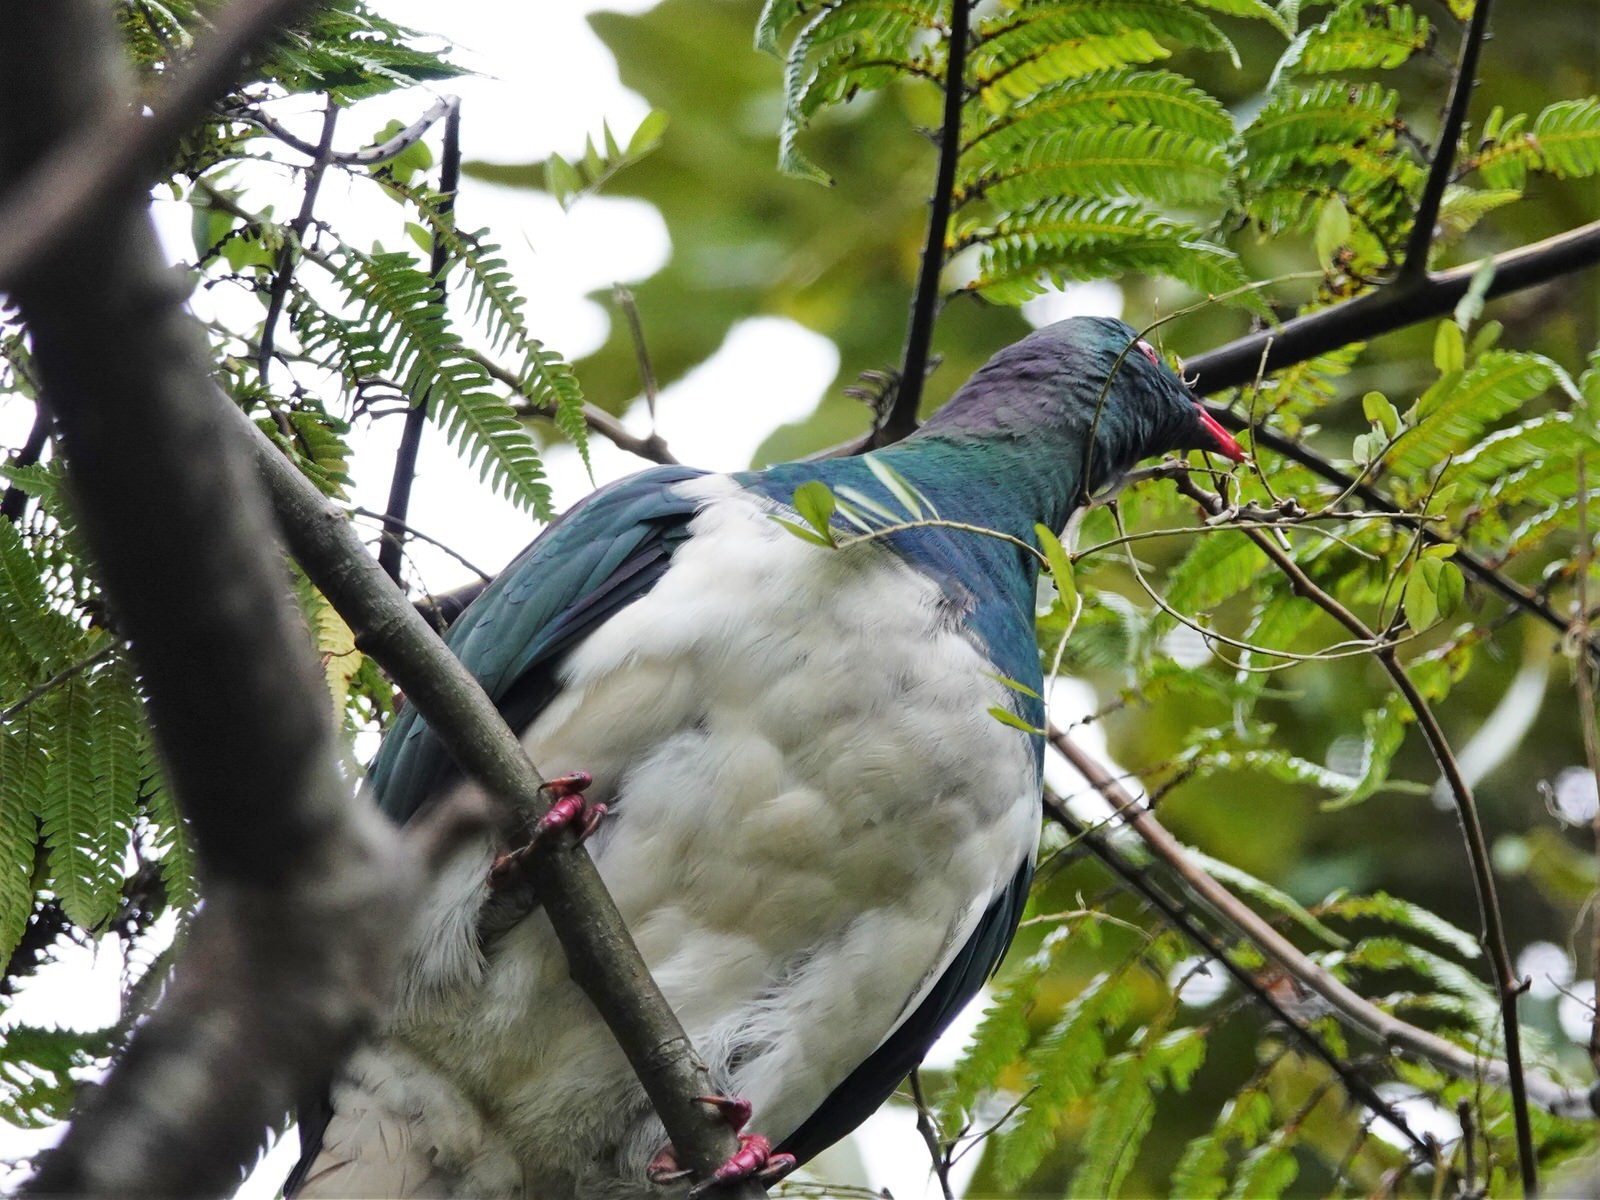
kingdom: Animalia
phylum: Chordata
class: Aves
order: Columbiformes
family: Columbidae
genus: Hemiphaga
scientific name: Hemiphaga novaeseelandiae
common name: New zealand pigeon
